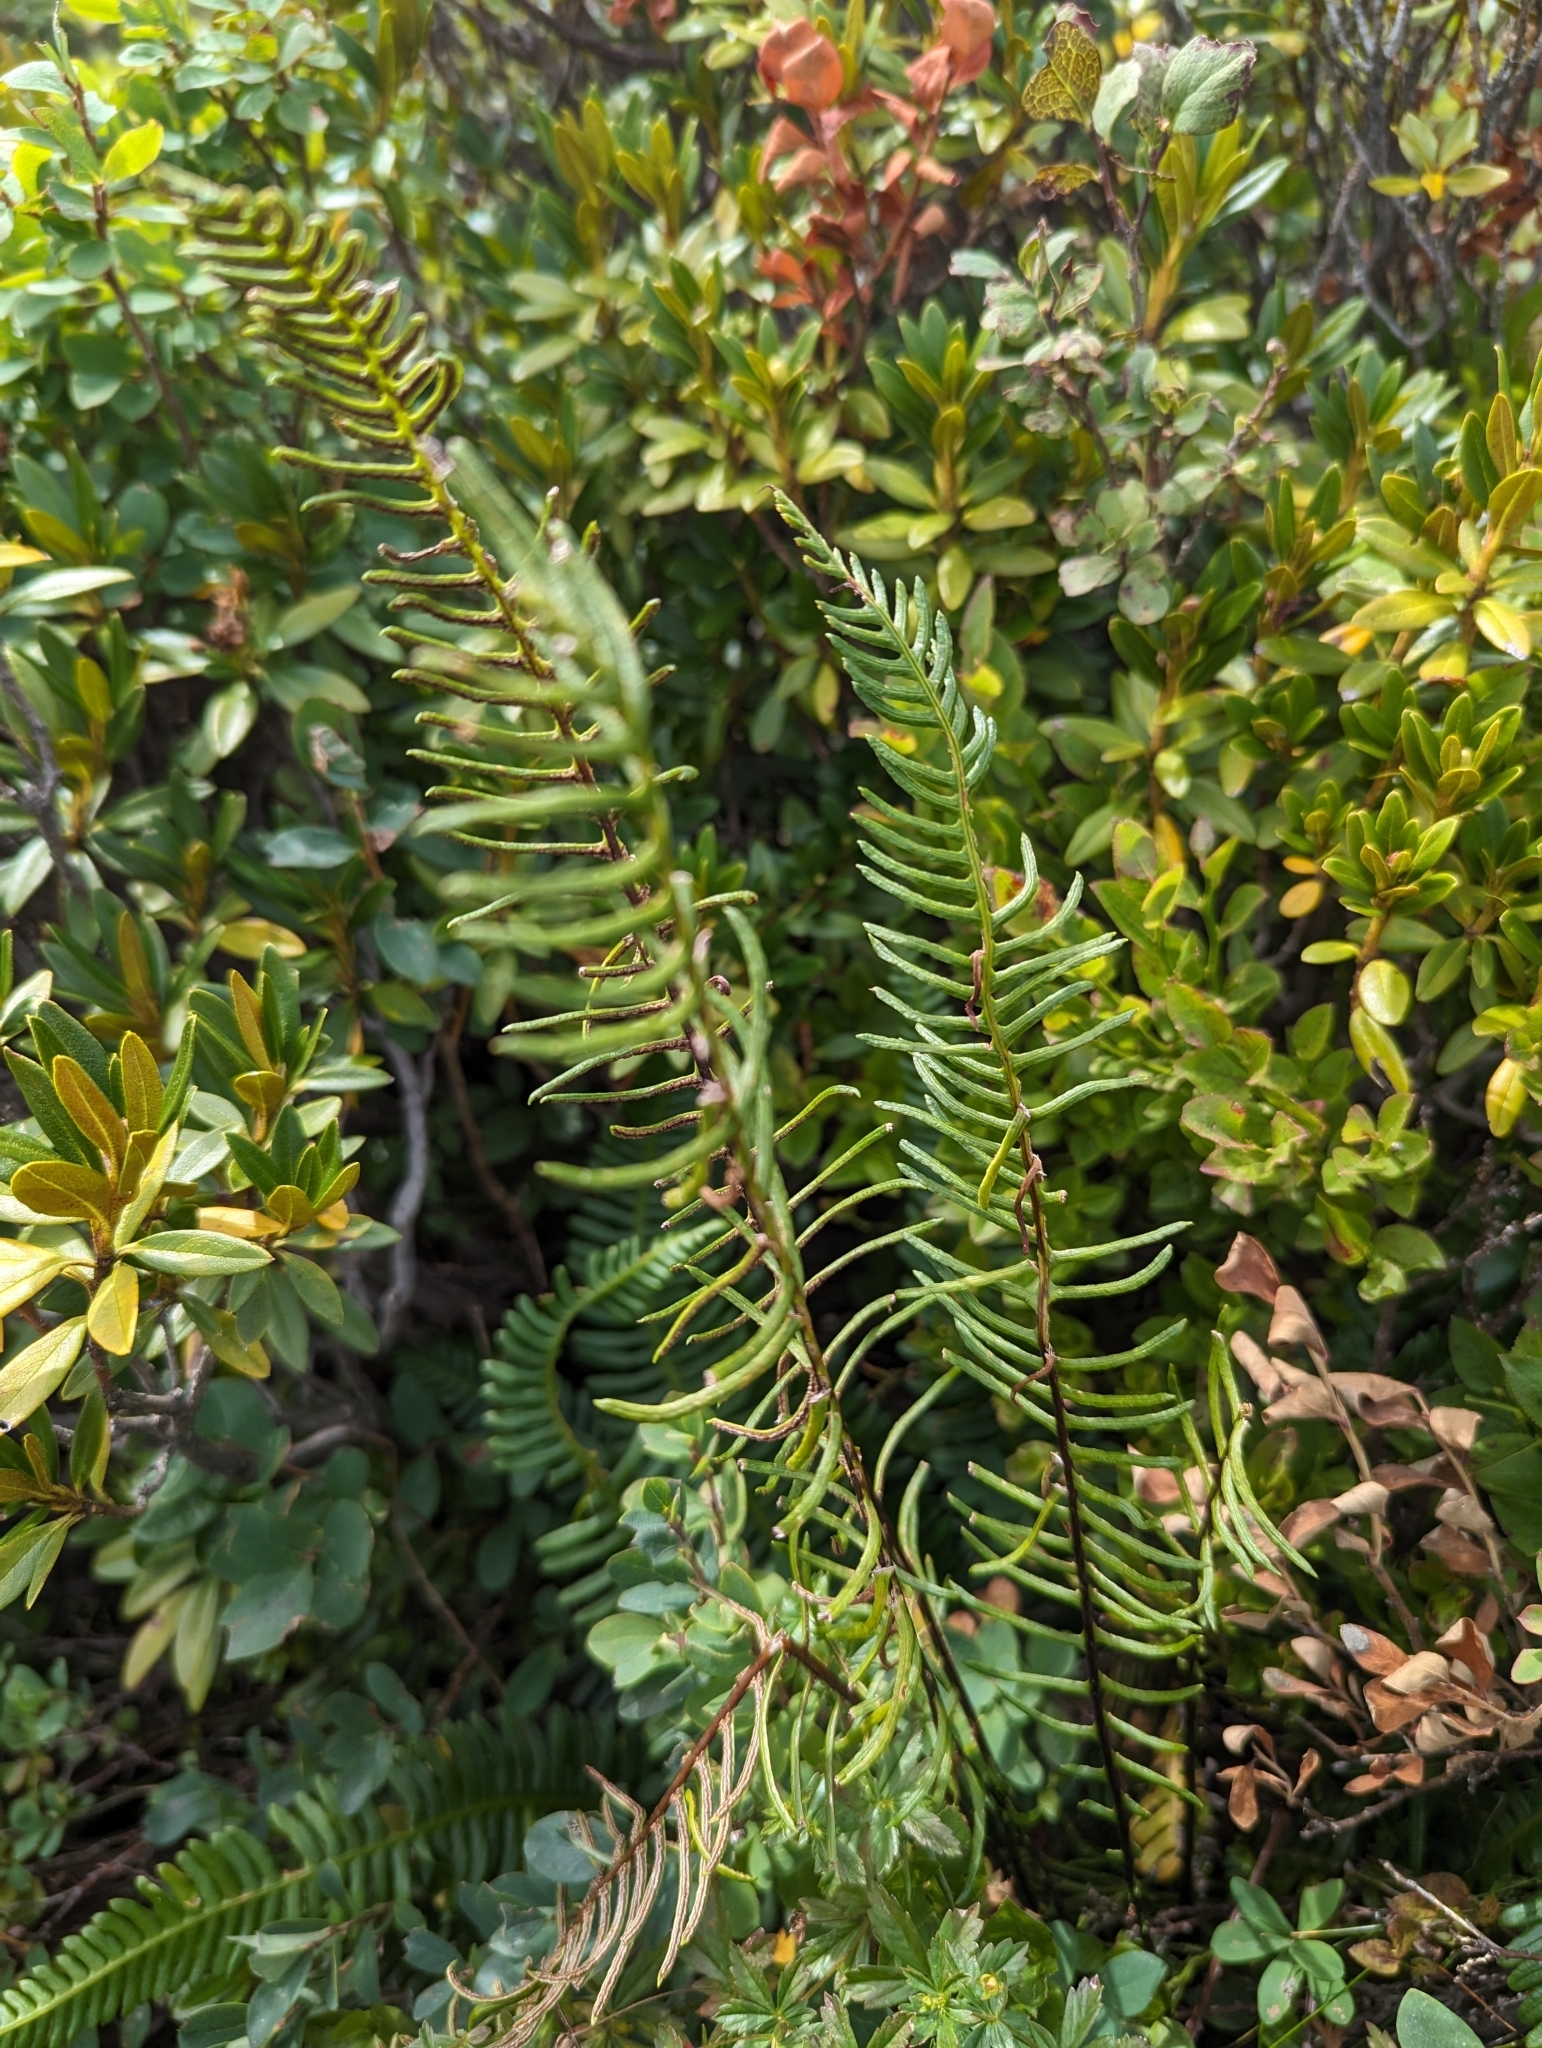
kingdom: Plantae
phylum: Tracheophyta
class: Polypodiopsida
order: Polypodiales
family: Blechnaceae
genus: Struthiopteris
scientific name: Struthiopteris spicant
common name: Deer fern
